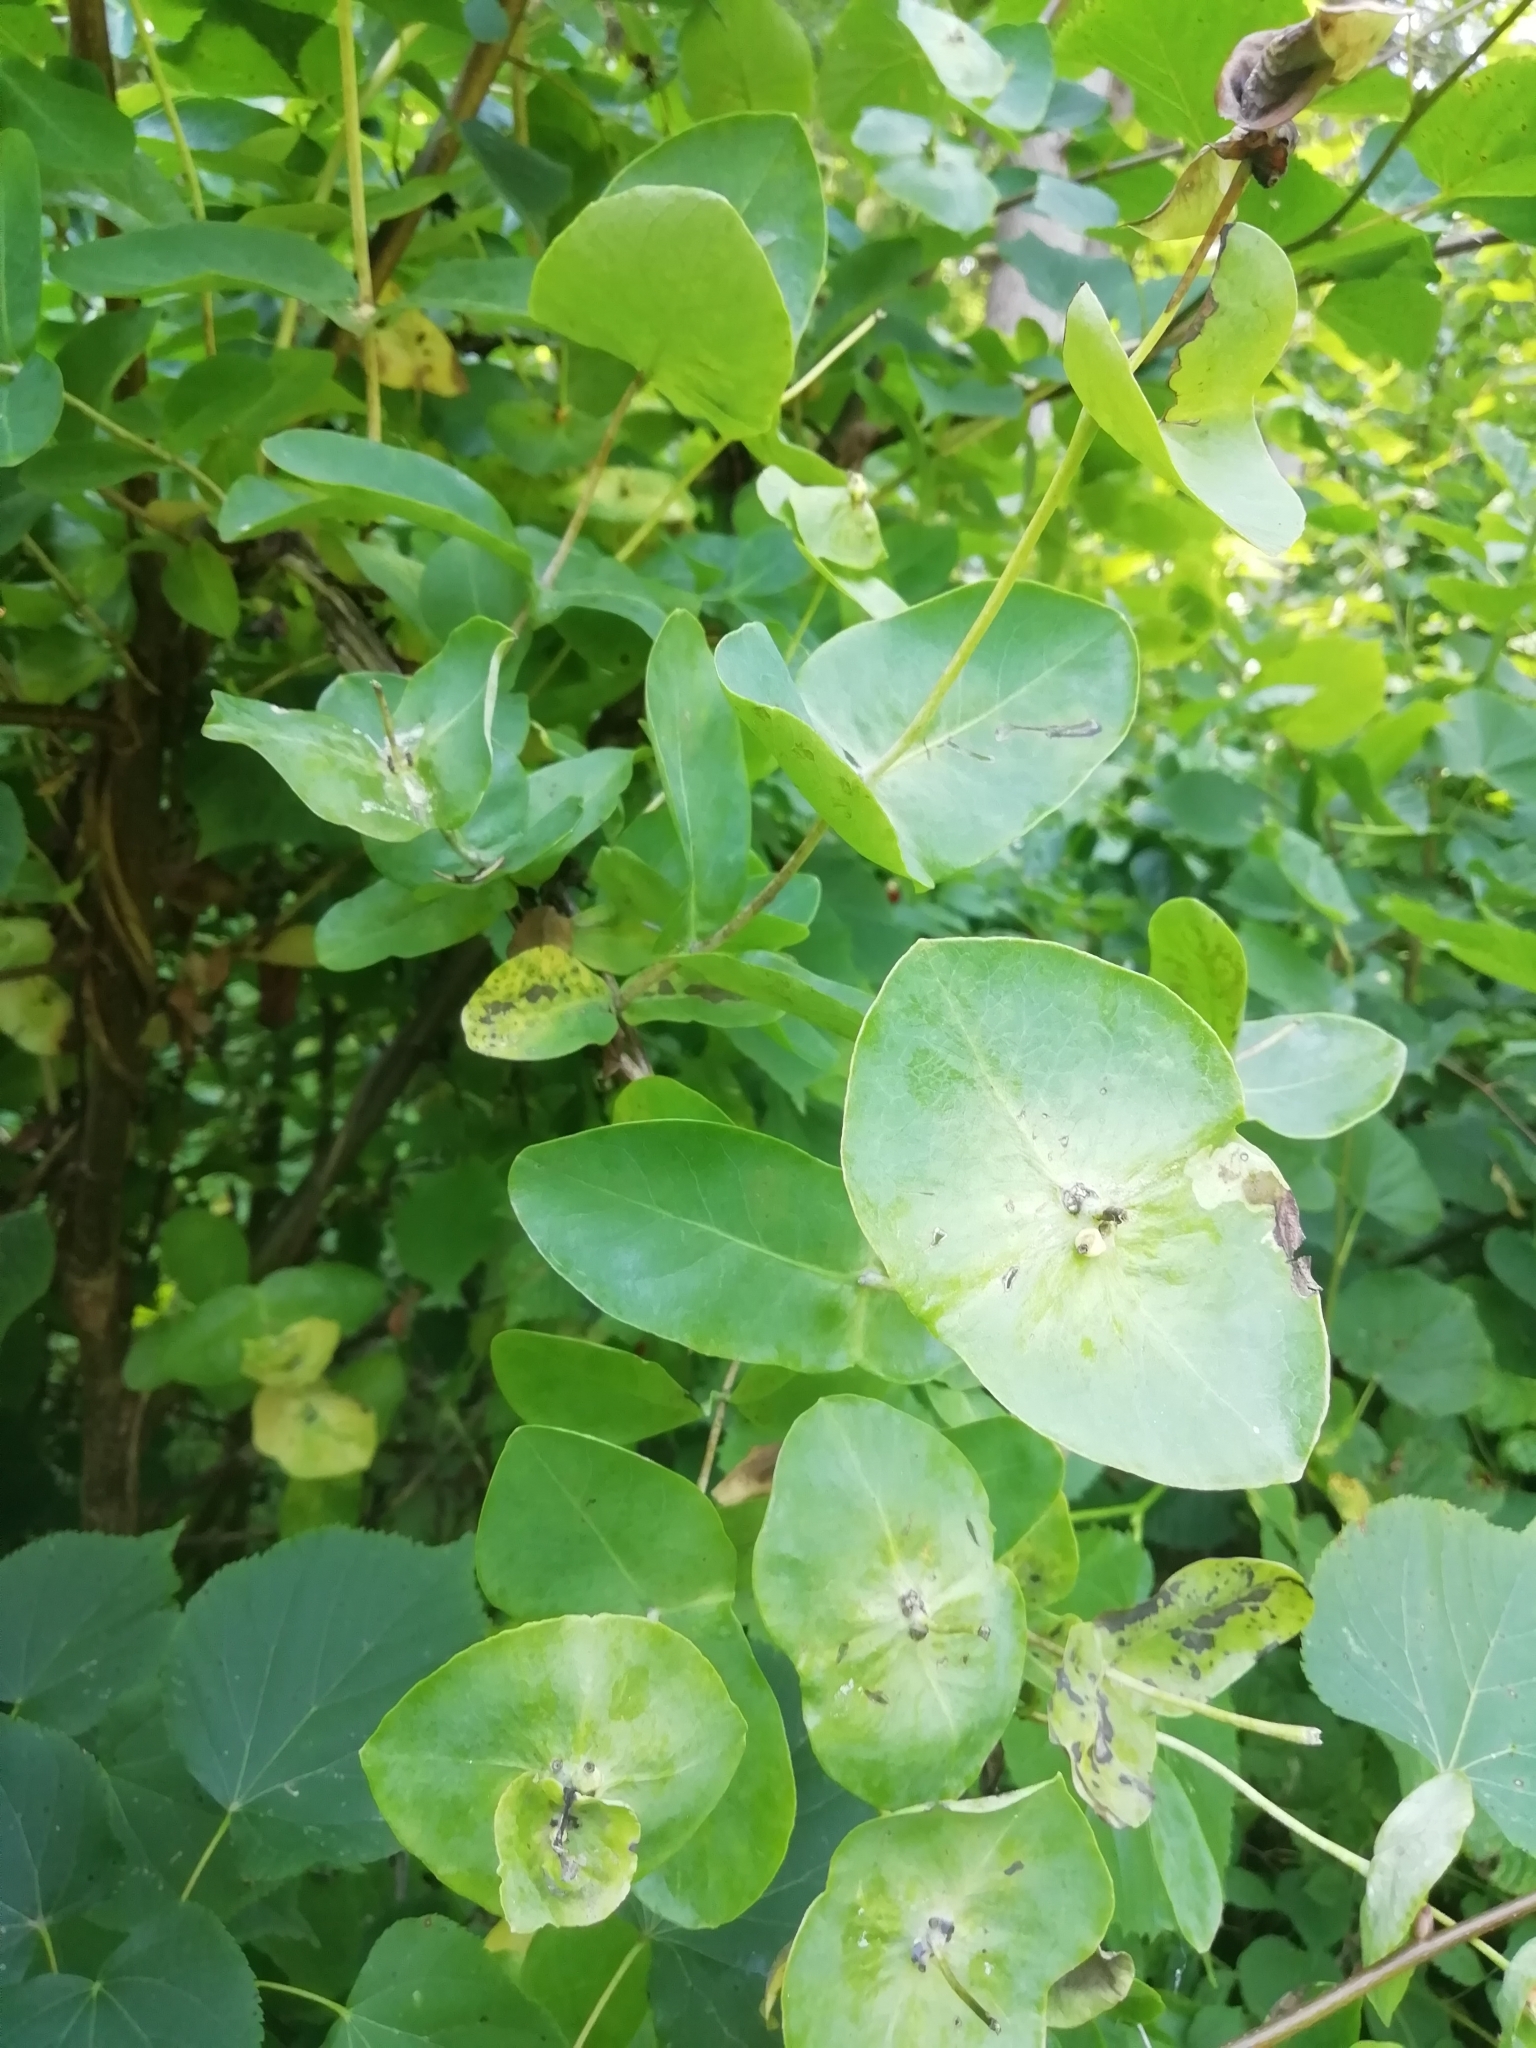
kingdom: Plantae
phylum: Tracheophyta
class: Magnoliopsida
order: Dipsacales
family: Caprifoliaceae
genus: Lonicera
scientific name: Lonicera caprifolium
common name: Perfoliate honeysuckle
